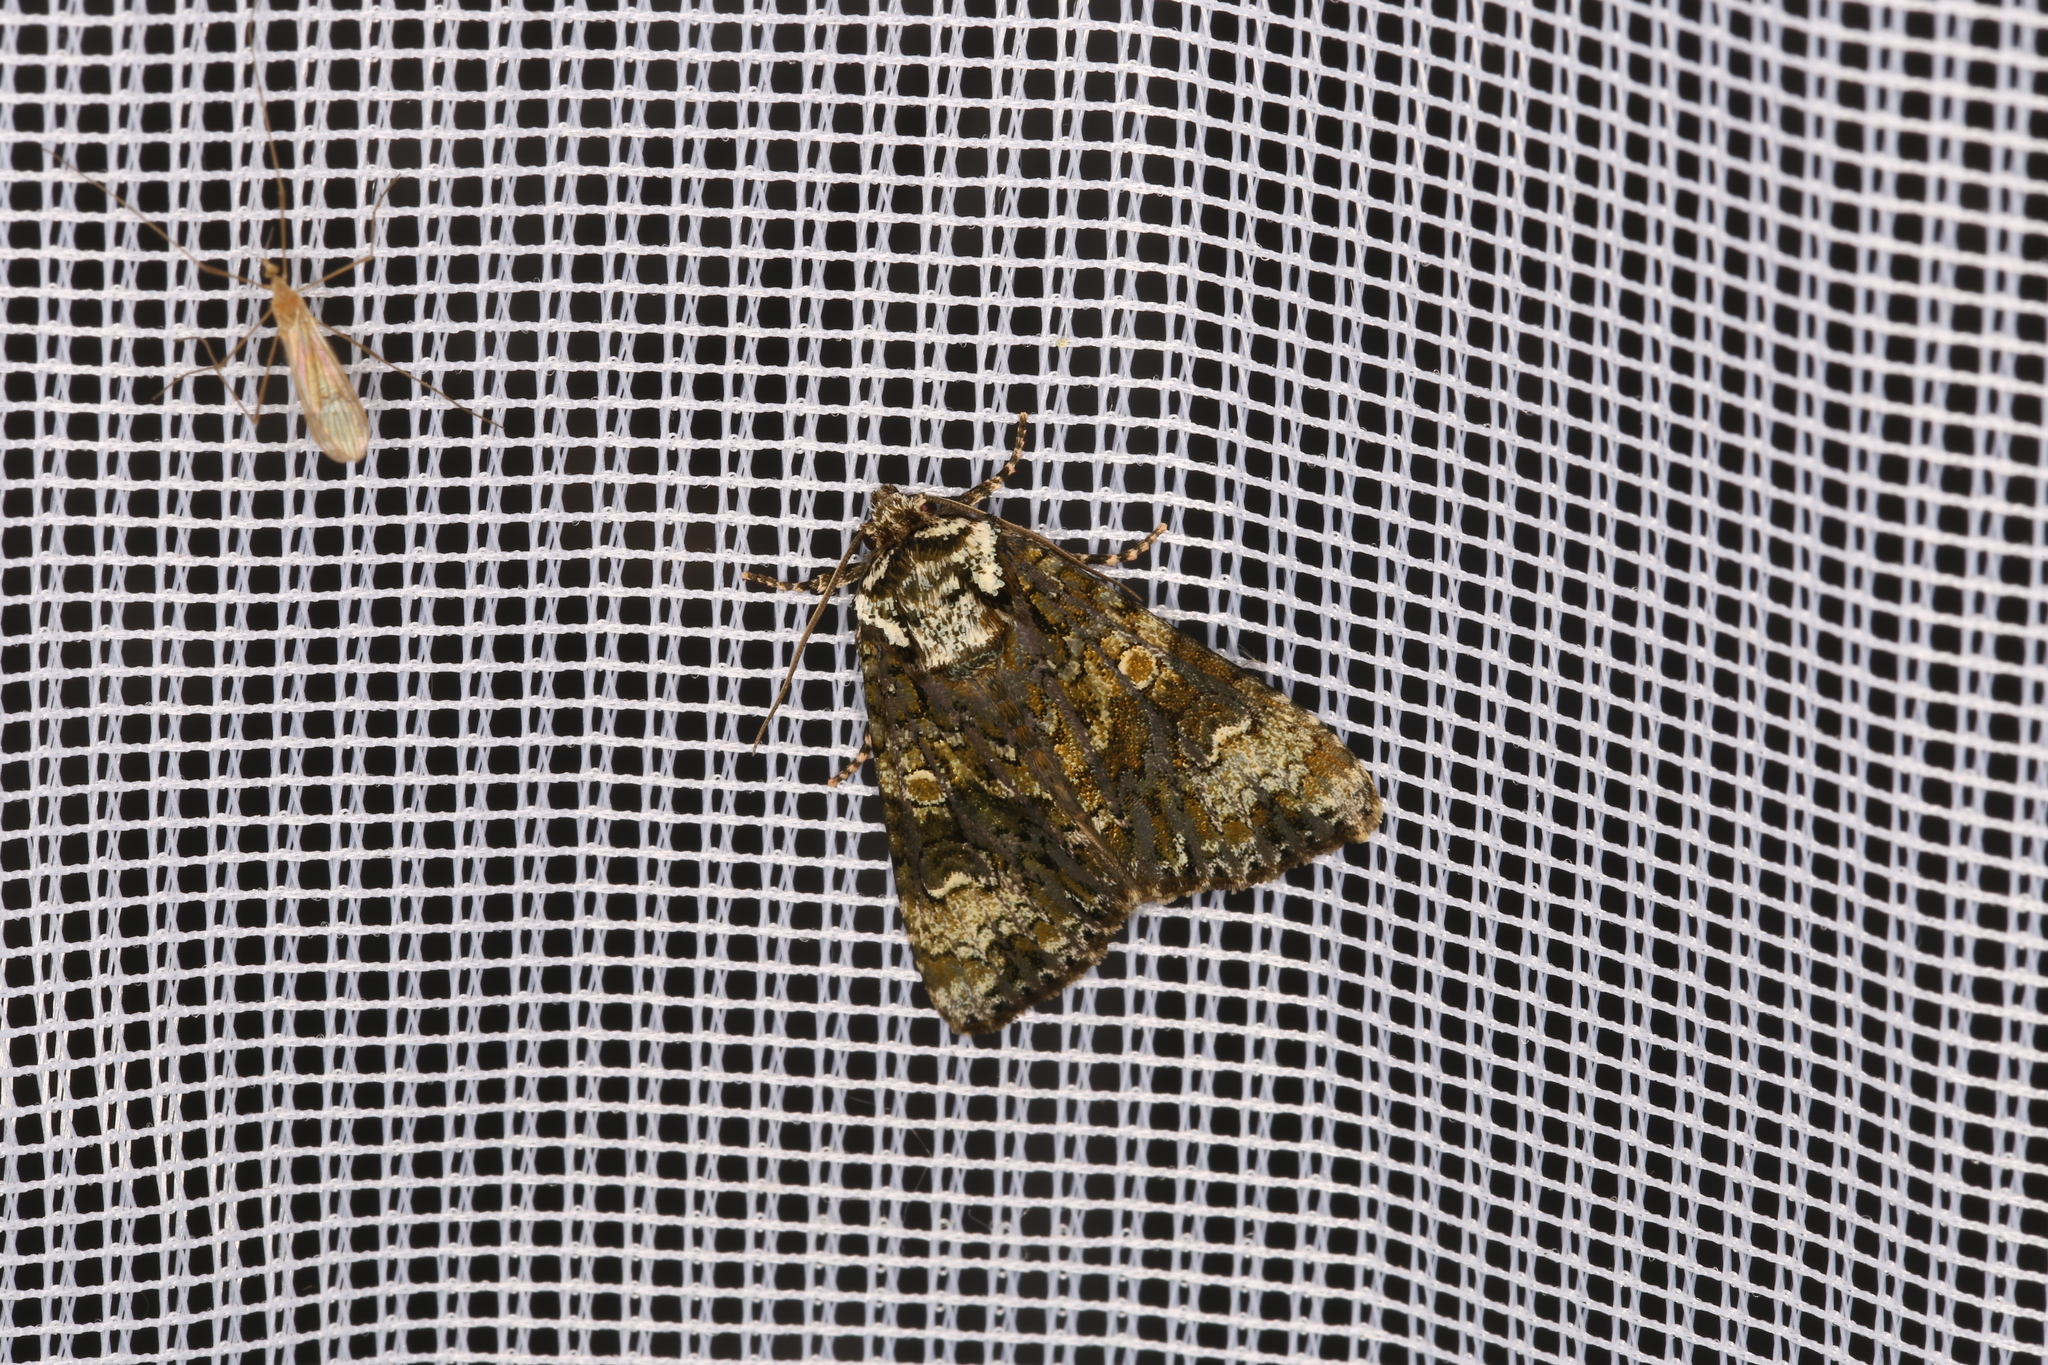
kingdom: Animalia
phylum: Arthropoda
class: Insecta
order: Lepidoptera
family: Noctuidae
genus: Craniophora
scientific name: Craniophora ligustri
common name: Coronet
